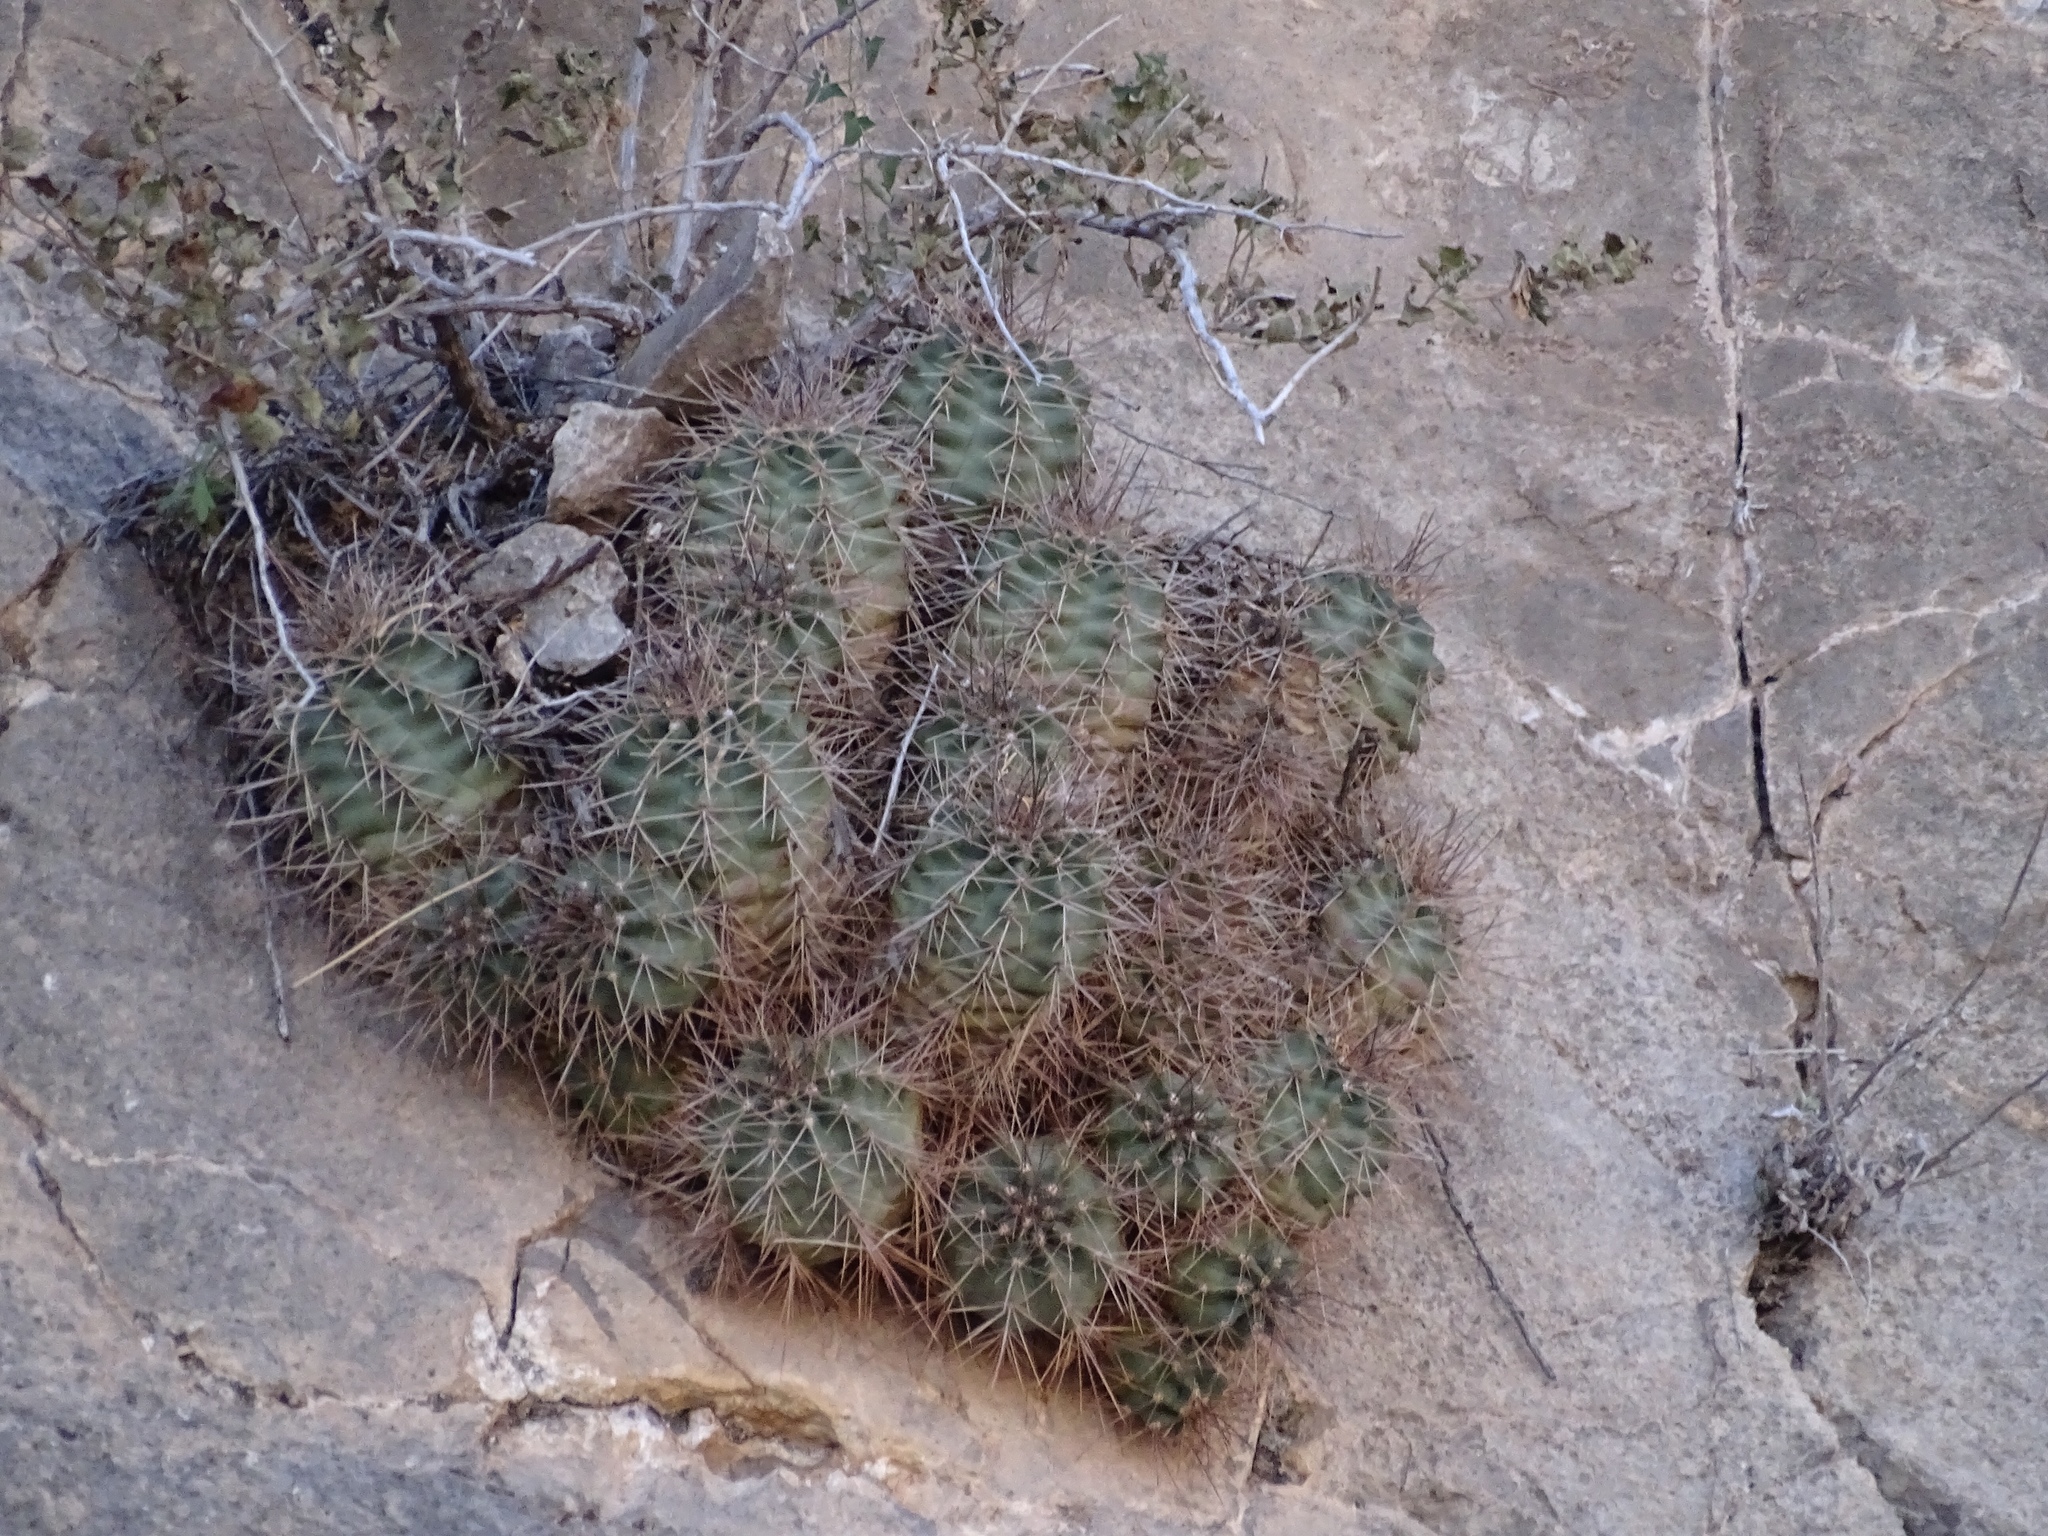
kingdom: Plantae
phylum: Tracheophyta
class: Magnoliopsida
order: Caryophyllales
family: Cactaceae
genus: Echinocereus
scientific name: Echinocereus coccineus
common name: Scarlet hedgehog cactus
